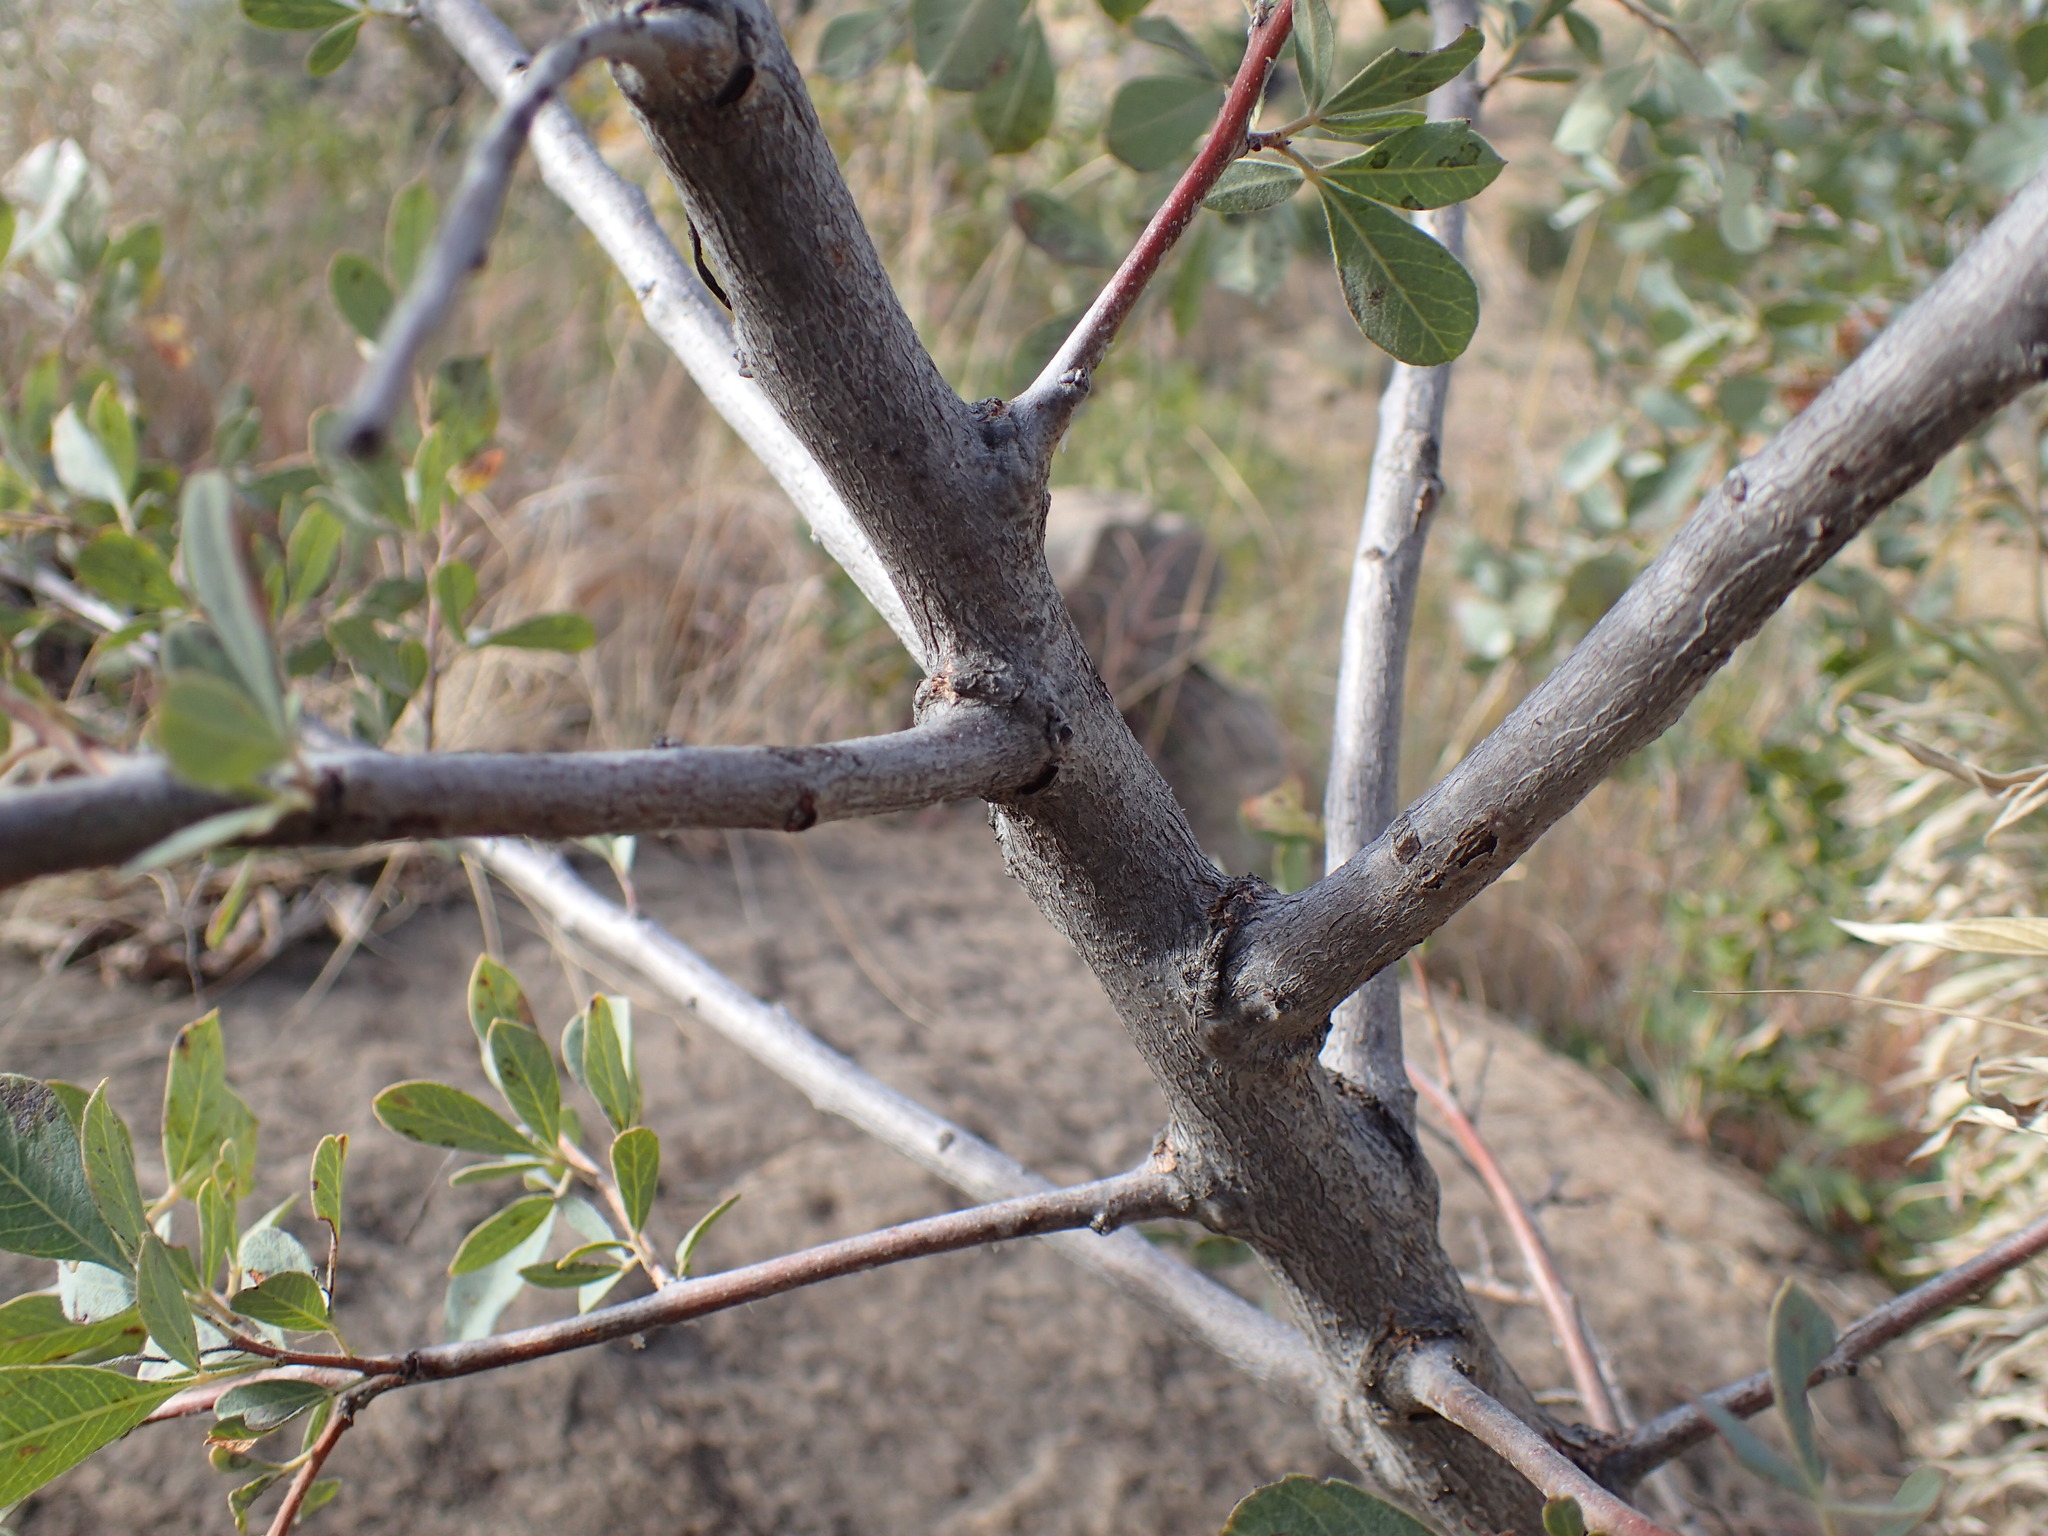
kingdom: Plantae
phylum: Tracheophyta
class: Magnoliopsida
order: Sapindales
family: Anacardiaceae
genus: Searsia
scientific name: Searsia zeyheri
